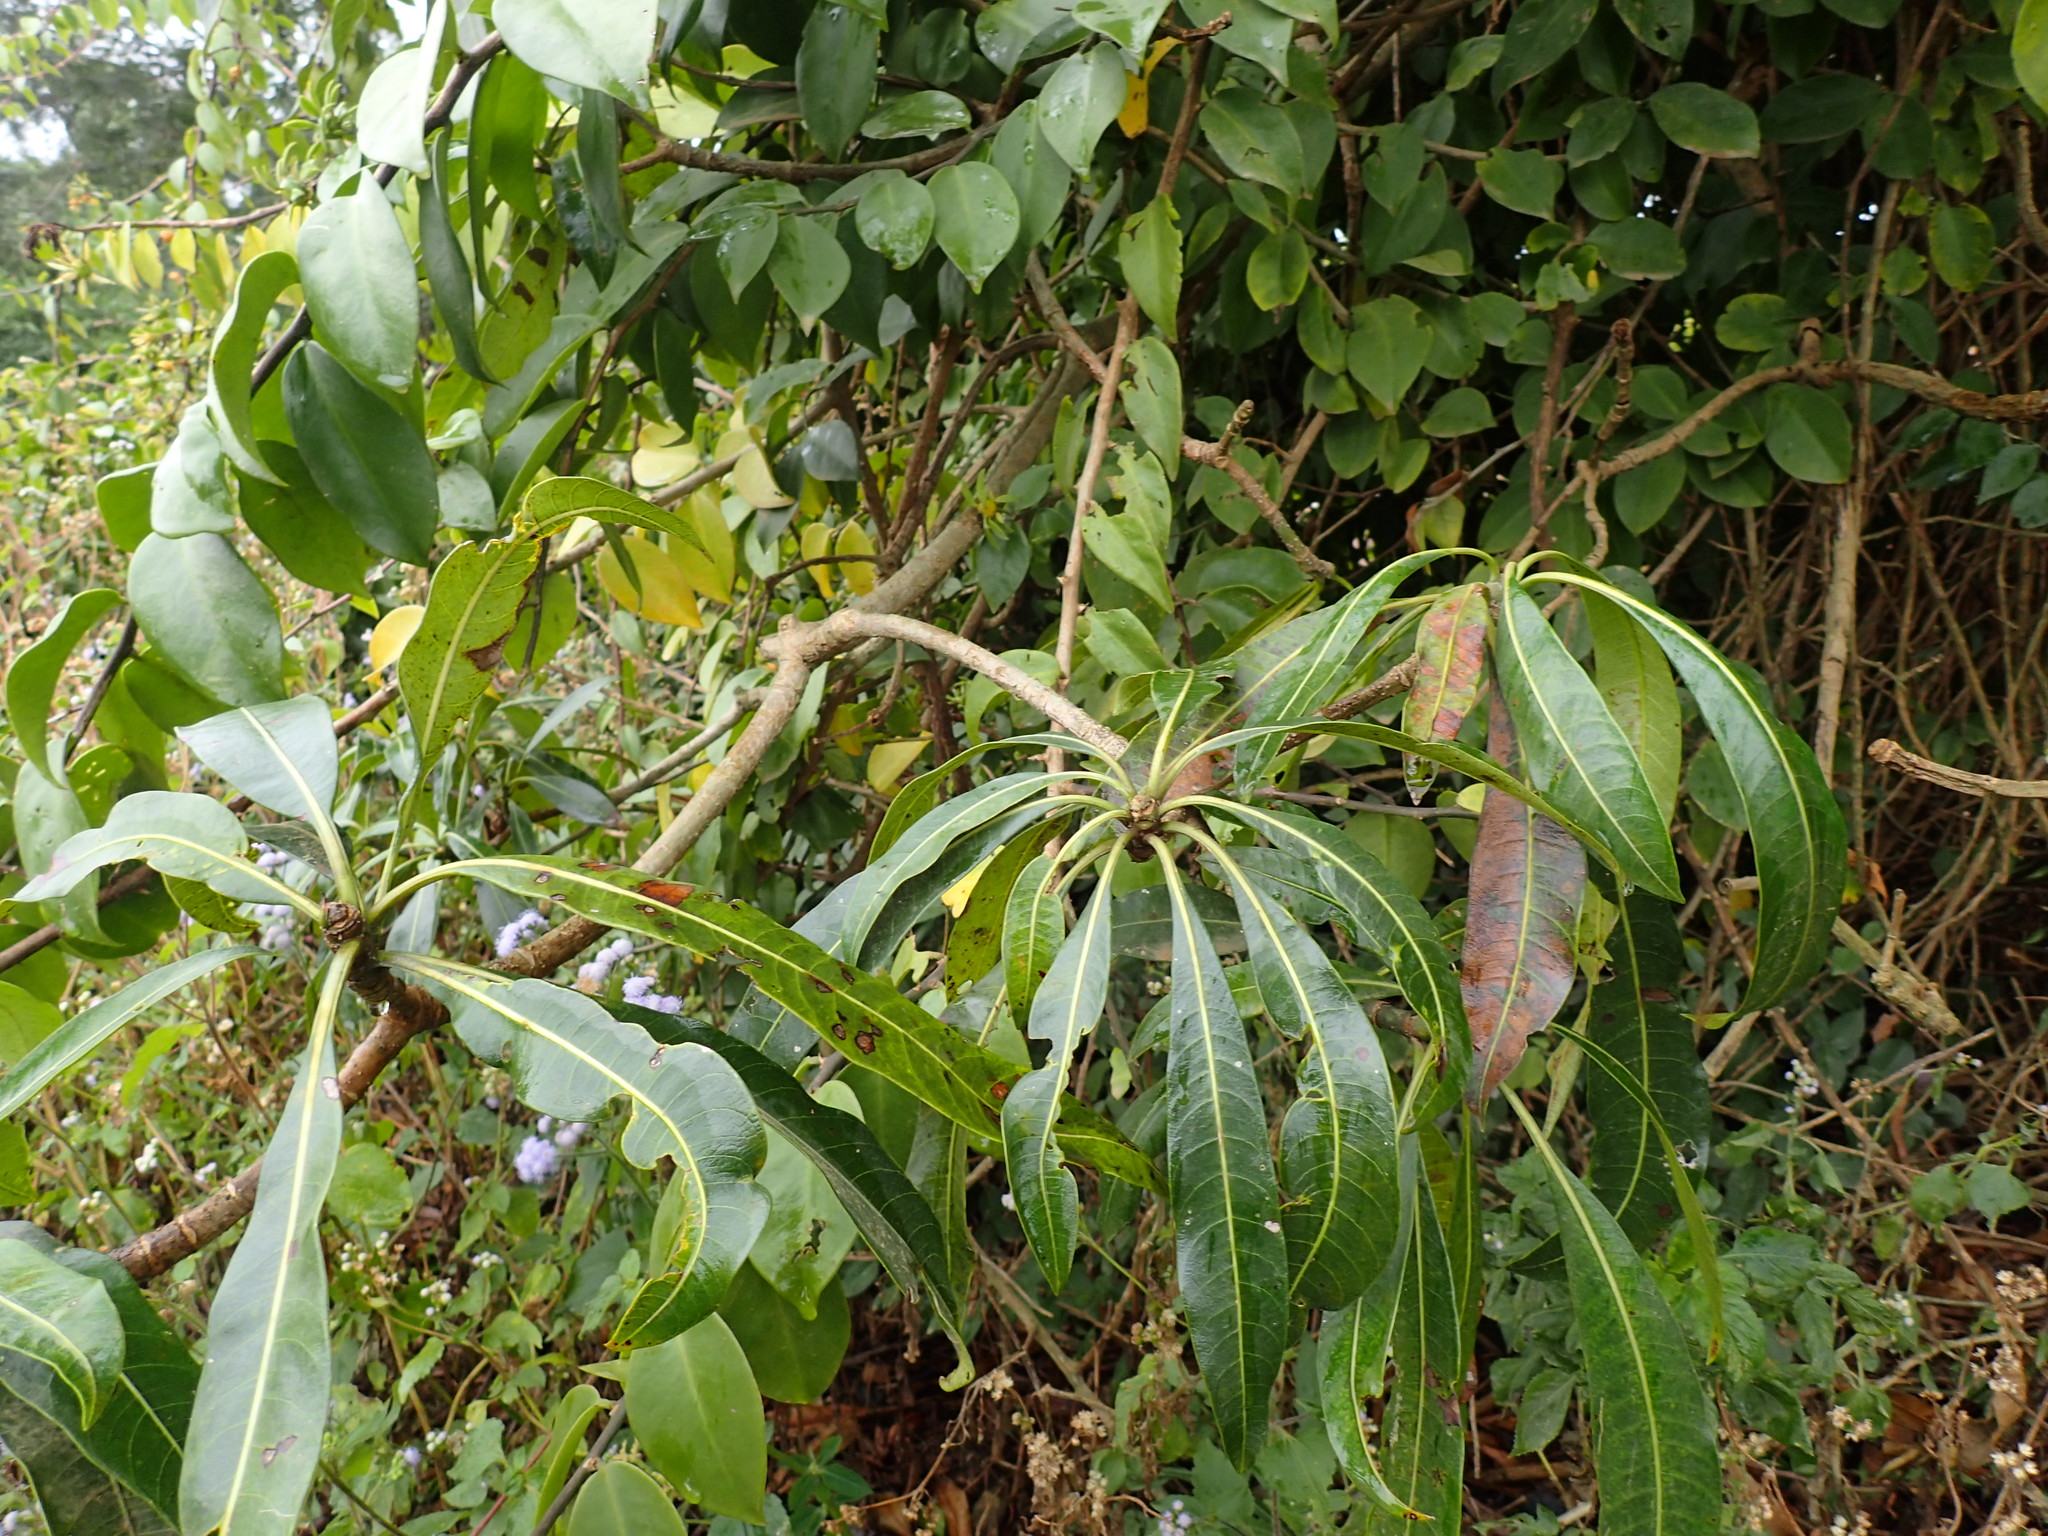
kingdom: Plantae
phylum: Tracheophyta
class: Magnoliopsida
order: Gentianales
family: Apocynaceae
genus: Rauvolfia
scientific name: Rauvolfia caffra
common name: Quininetree
